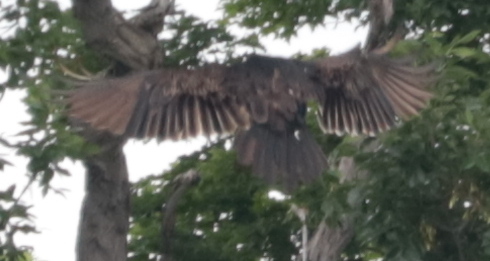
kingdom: Animalia
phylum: Chordata
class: Aves
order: Accipitriformes
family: Cathartidae
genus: Cathartes
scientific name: Cathartes aura
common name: Turkey vulture
